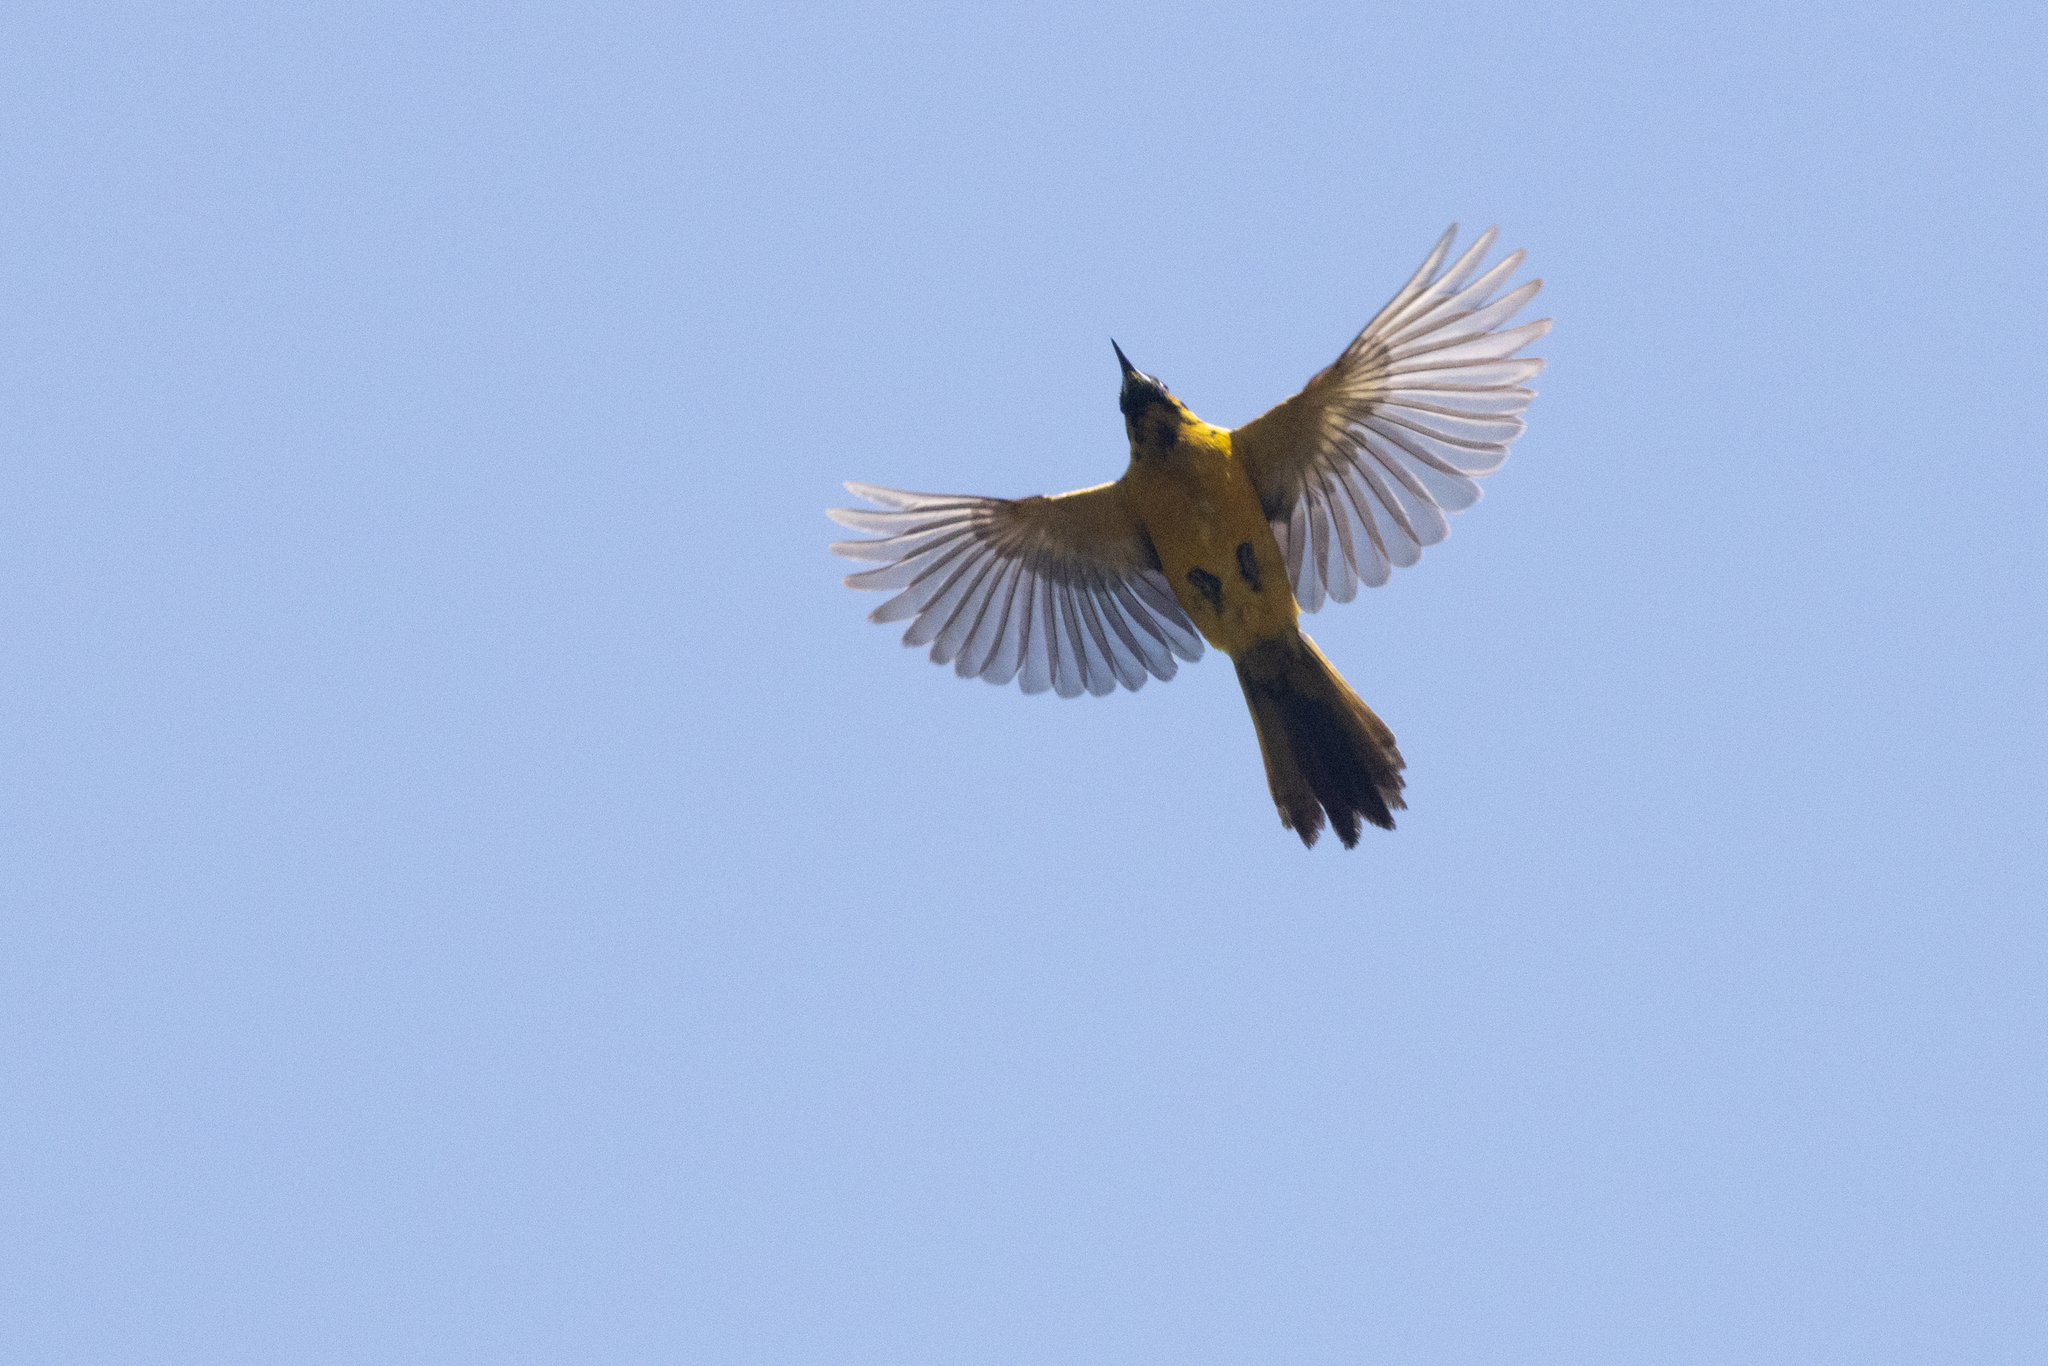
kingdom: Animalia
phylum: Chordata
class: Aves
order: Passeriformes
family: Icteridae
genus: Icterus
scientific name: Icterus wagleri
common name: Black-vented oriole
